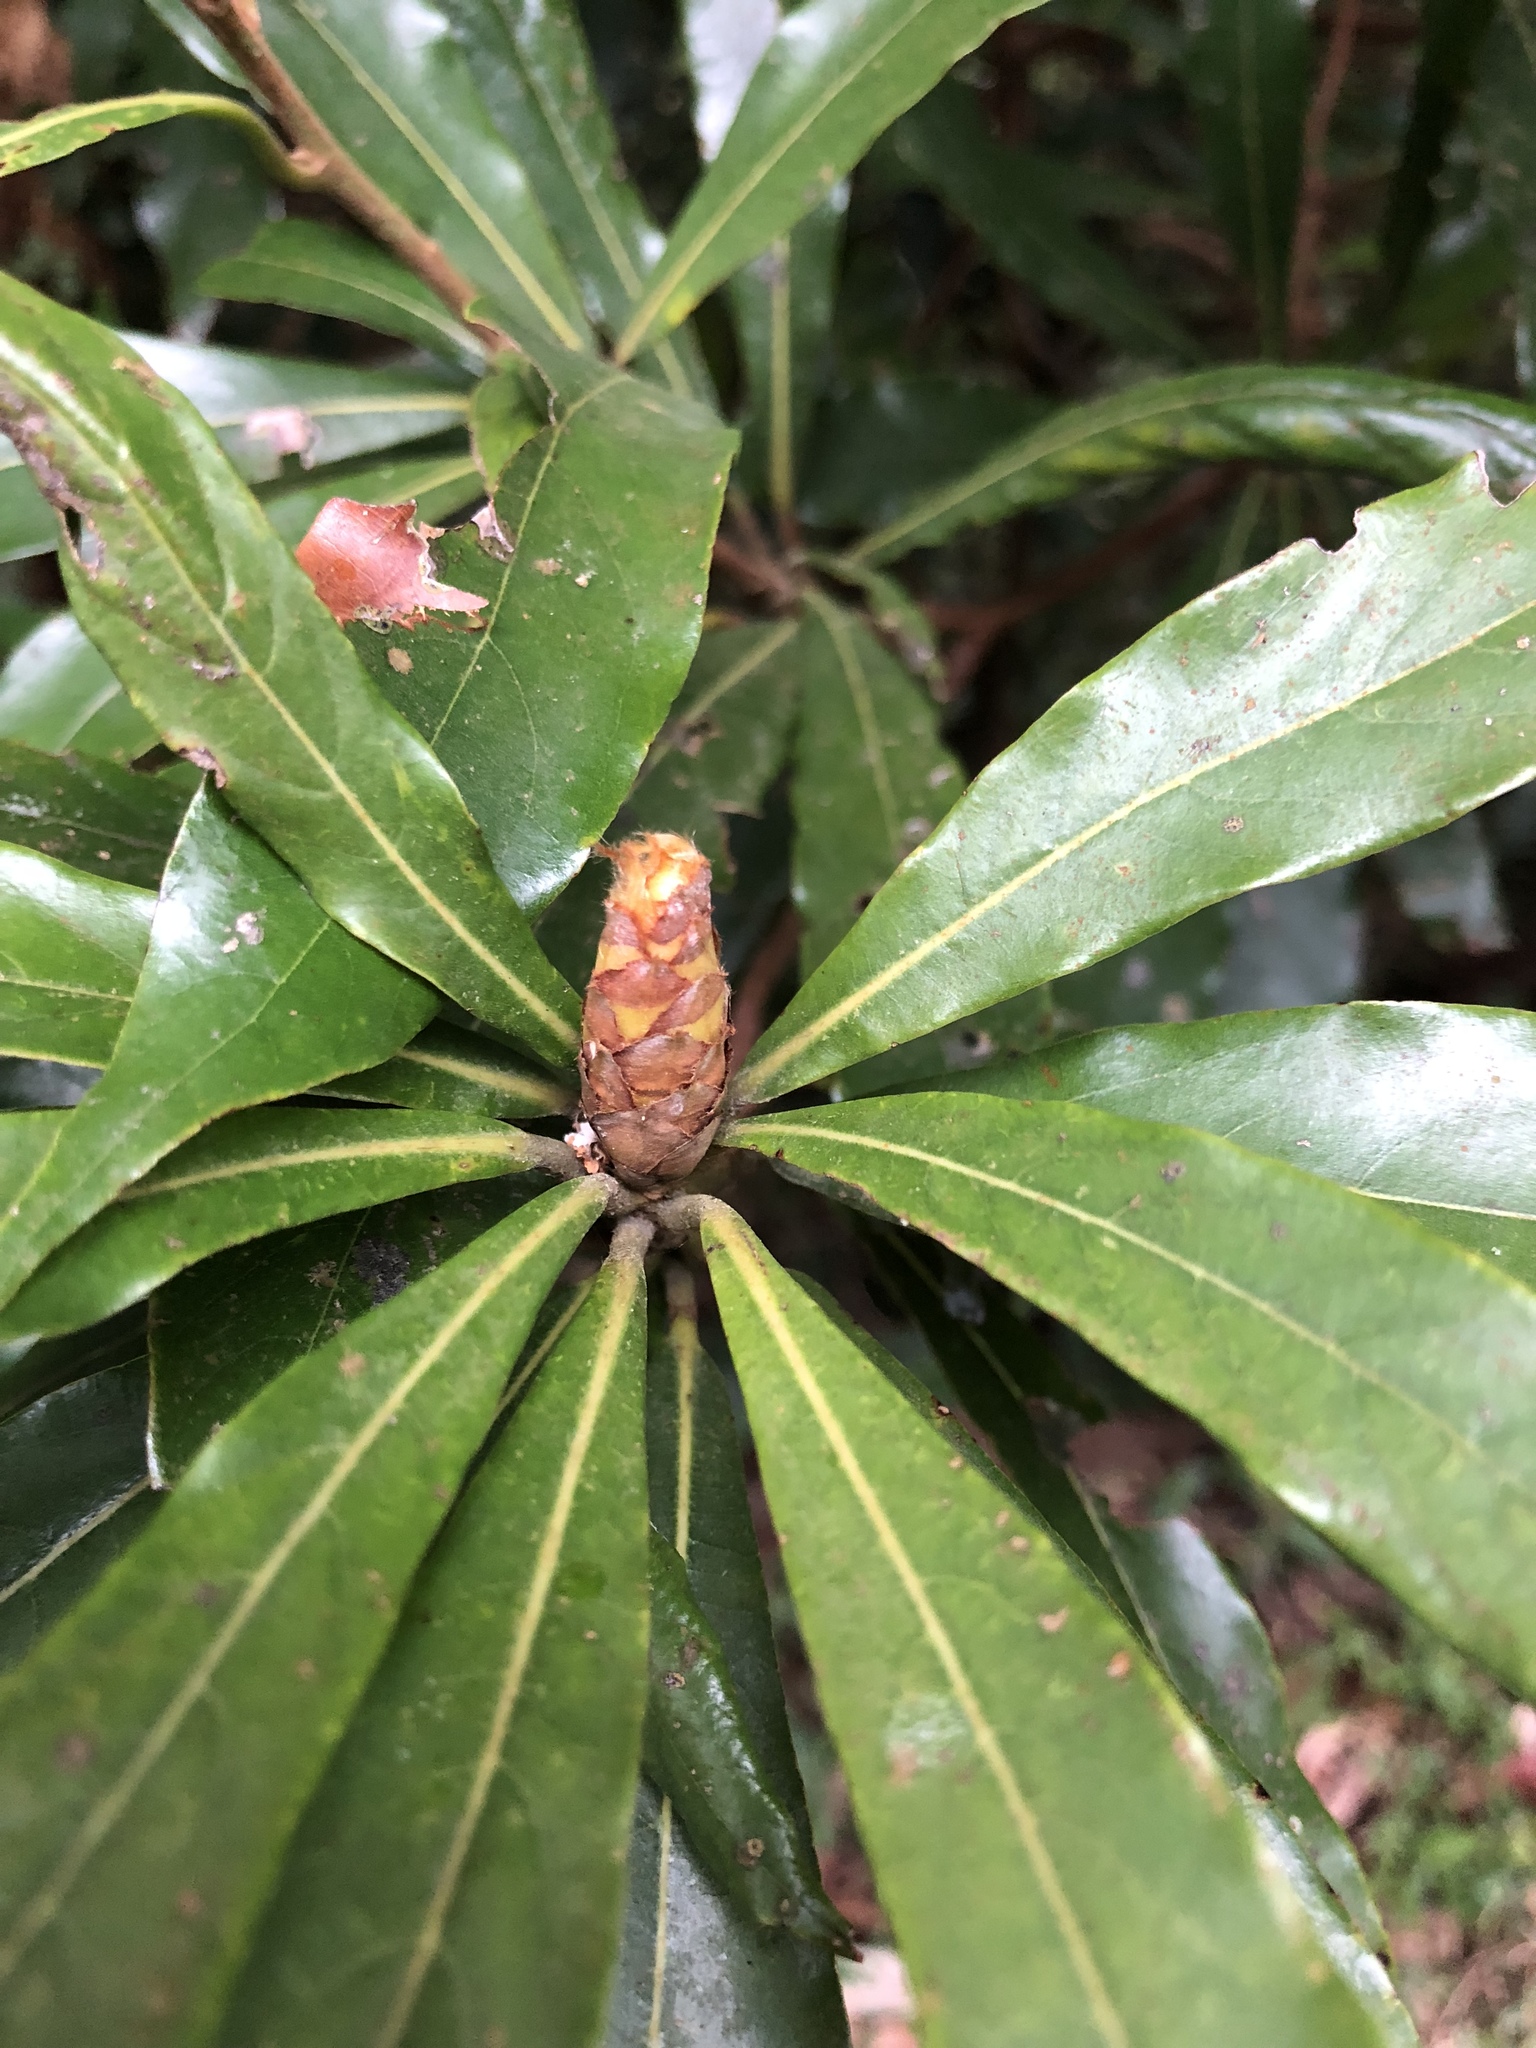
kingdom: Plantae
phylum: Tracheophyta
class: Magnoliopsida
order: Laurales
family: Lauraceae
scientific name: Lauraceae
